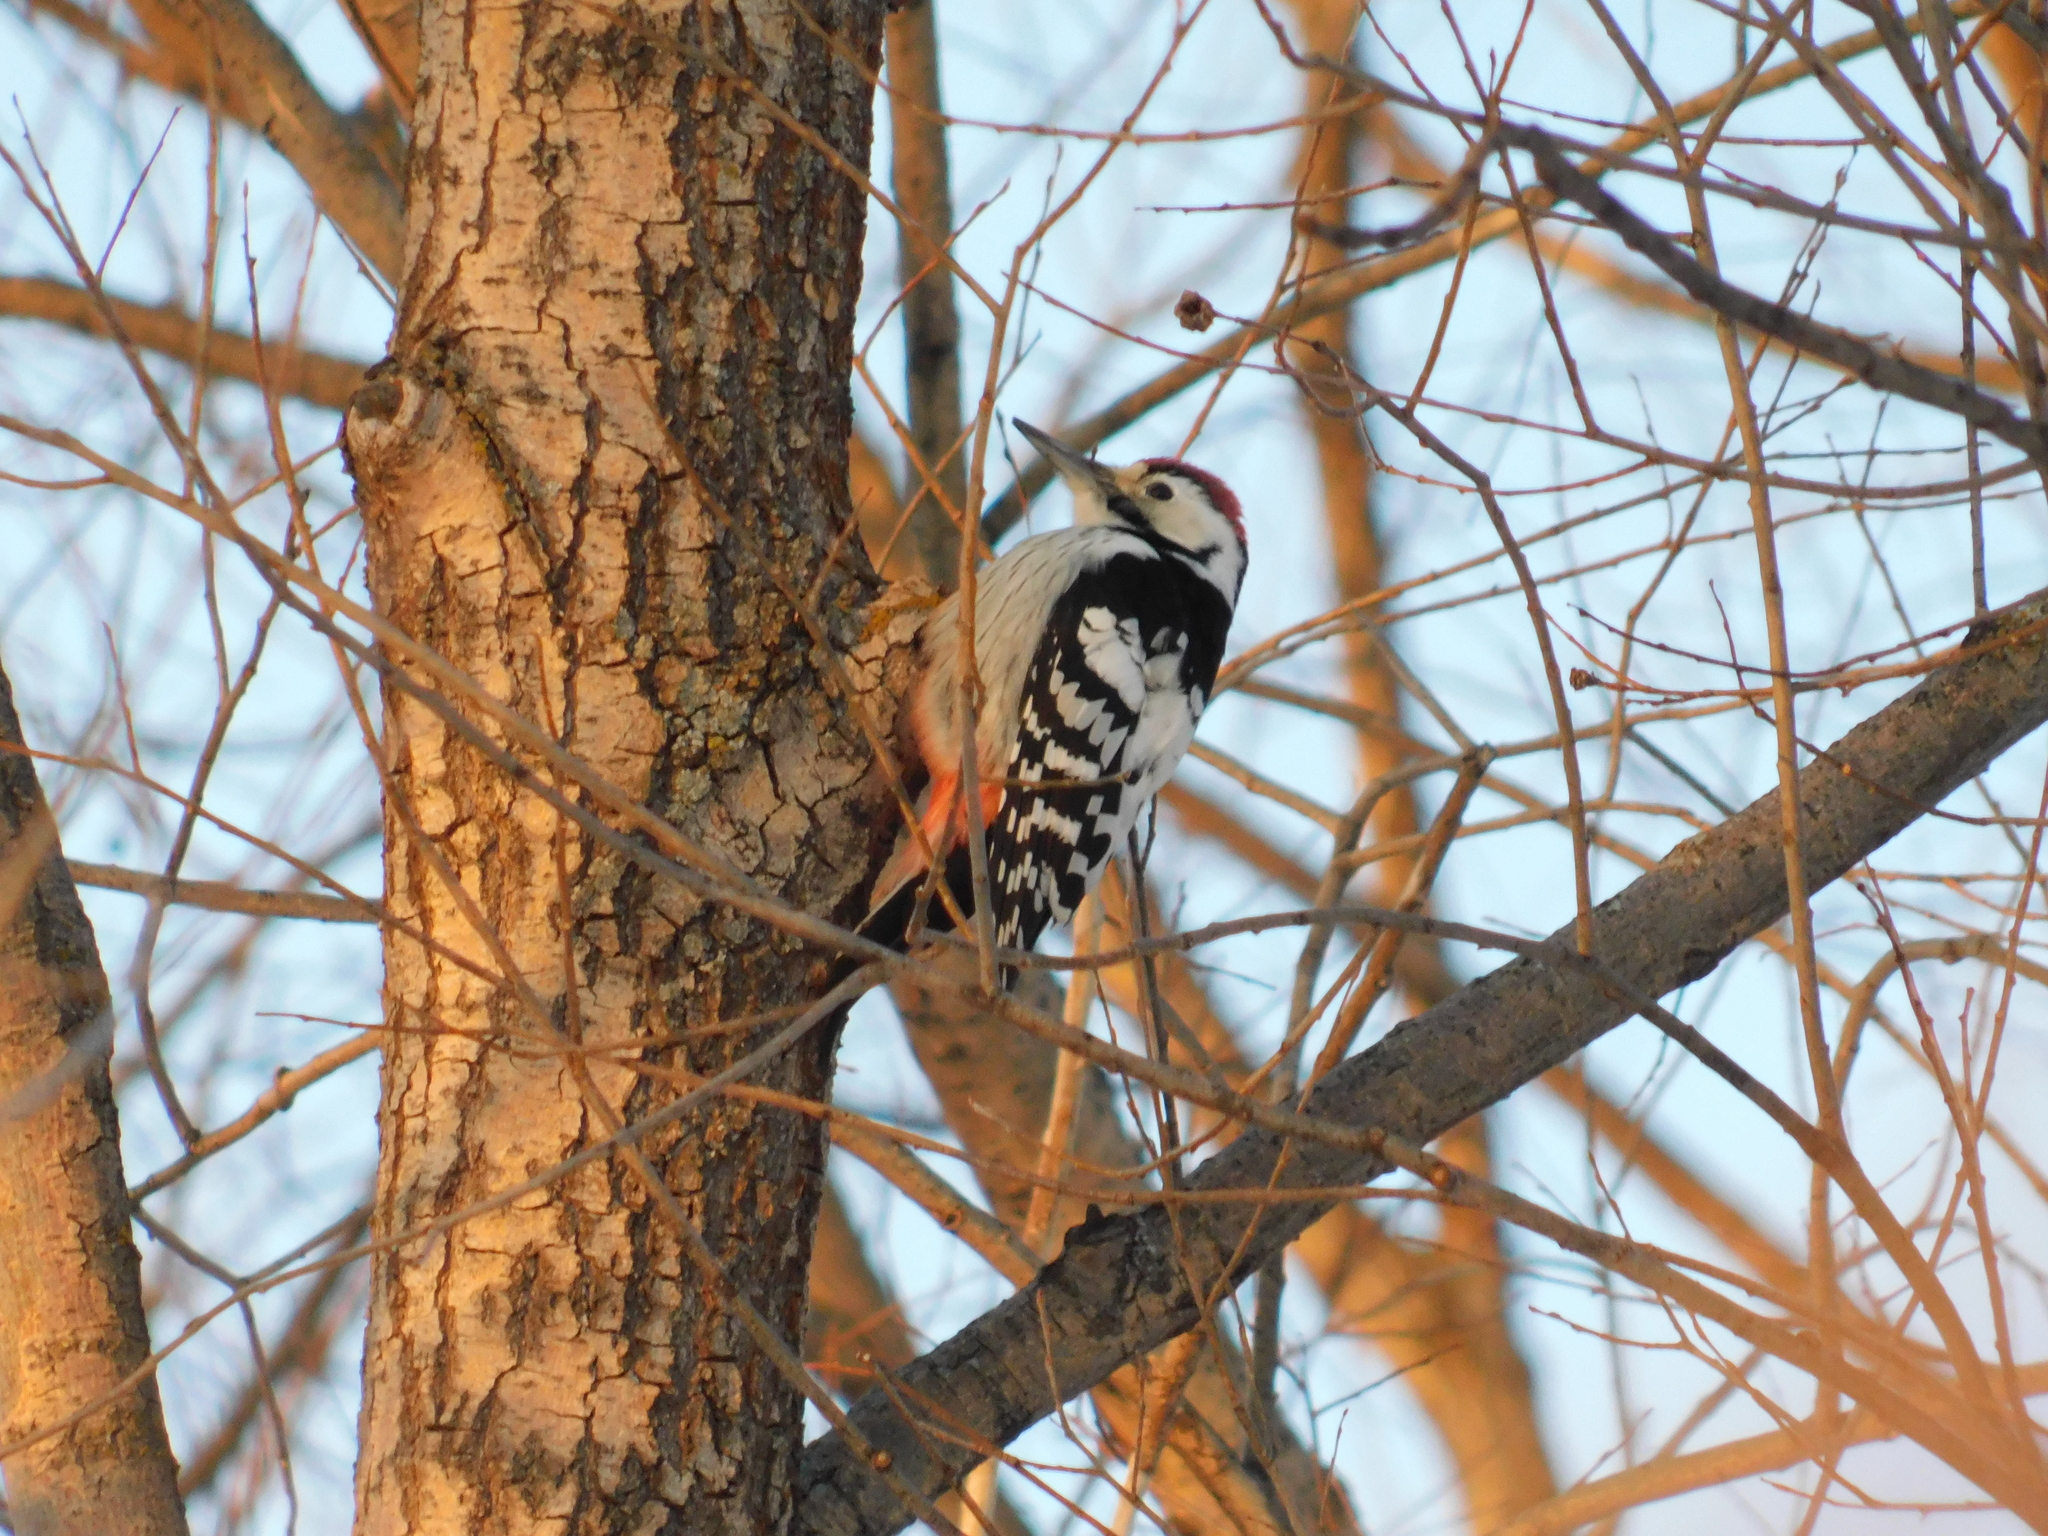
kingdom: Animalia
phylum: Chordata
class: Aves
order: Piciformes
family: Picidae
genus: Dendrocopos
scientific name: Dendrocopos leucotos
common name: White-backed woodpecker
